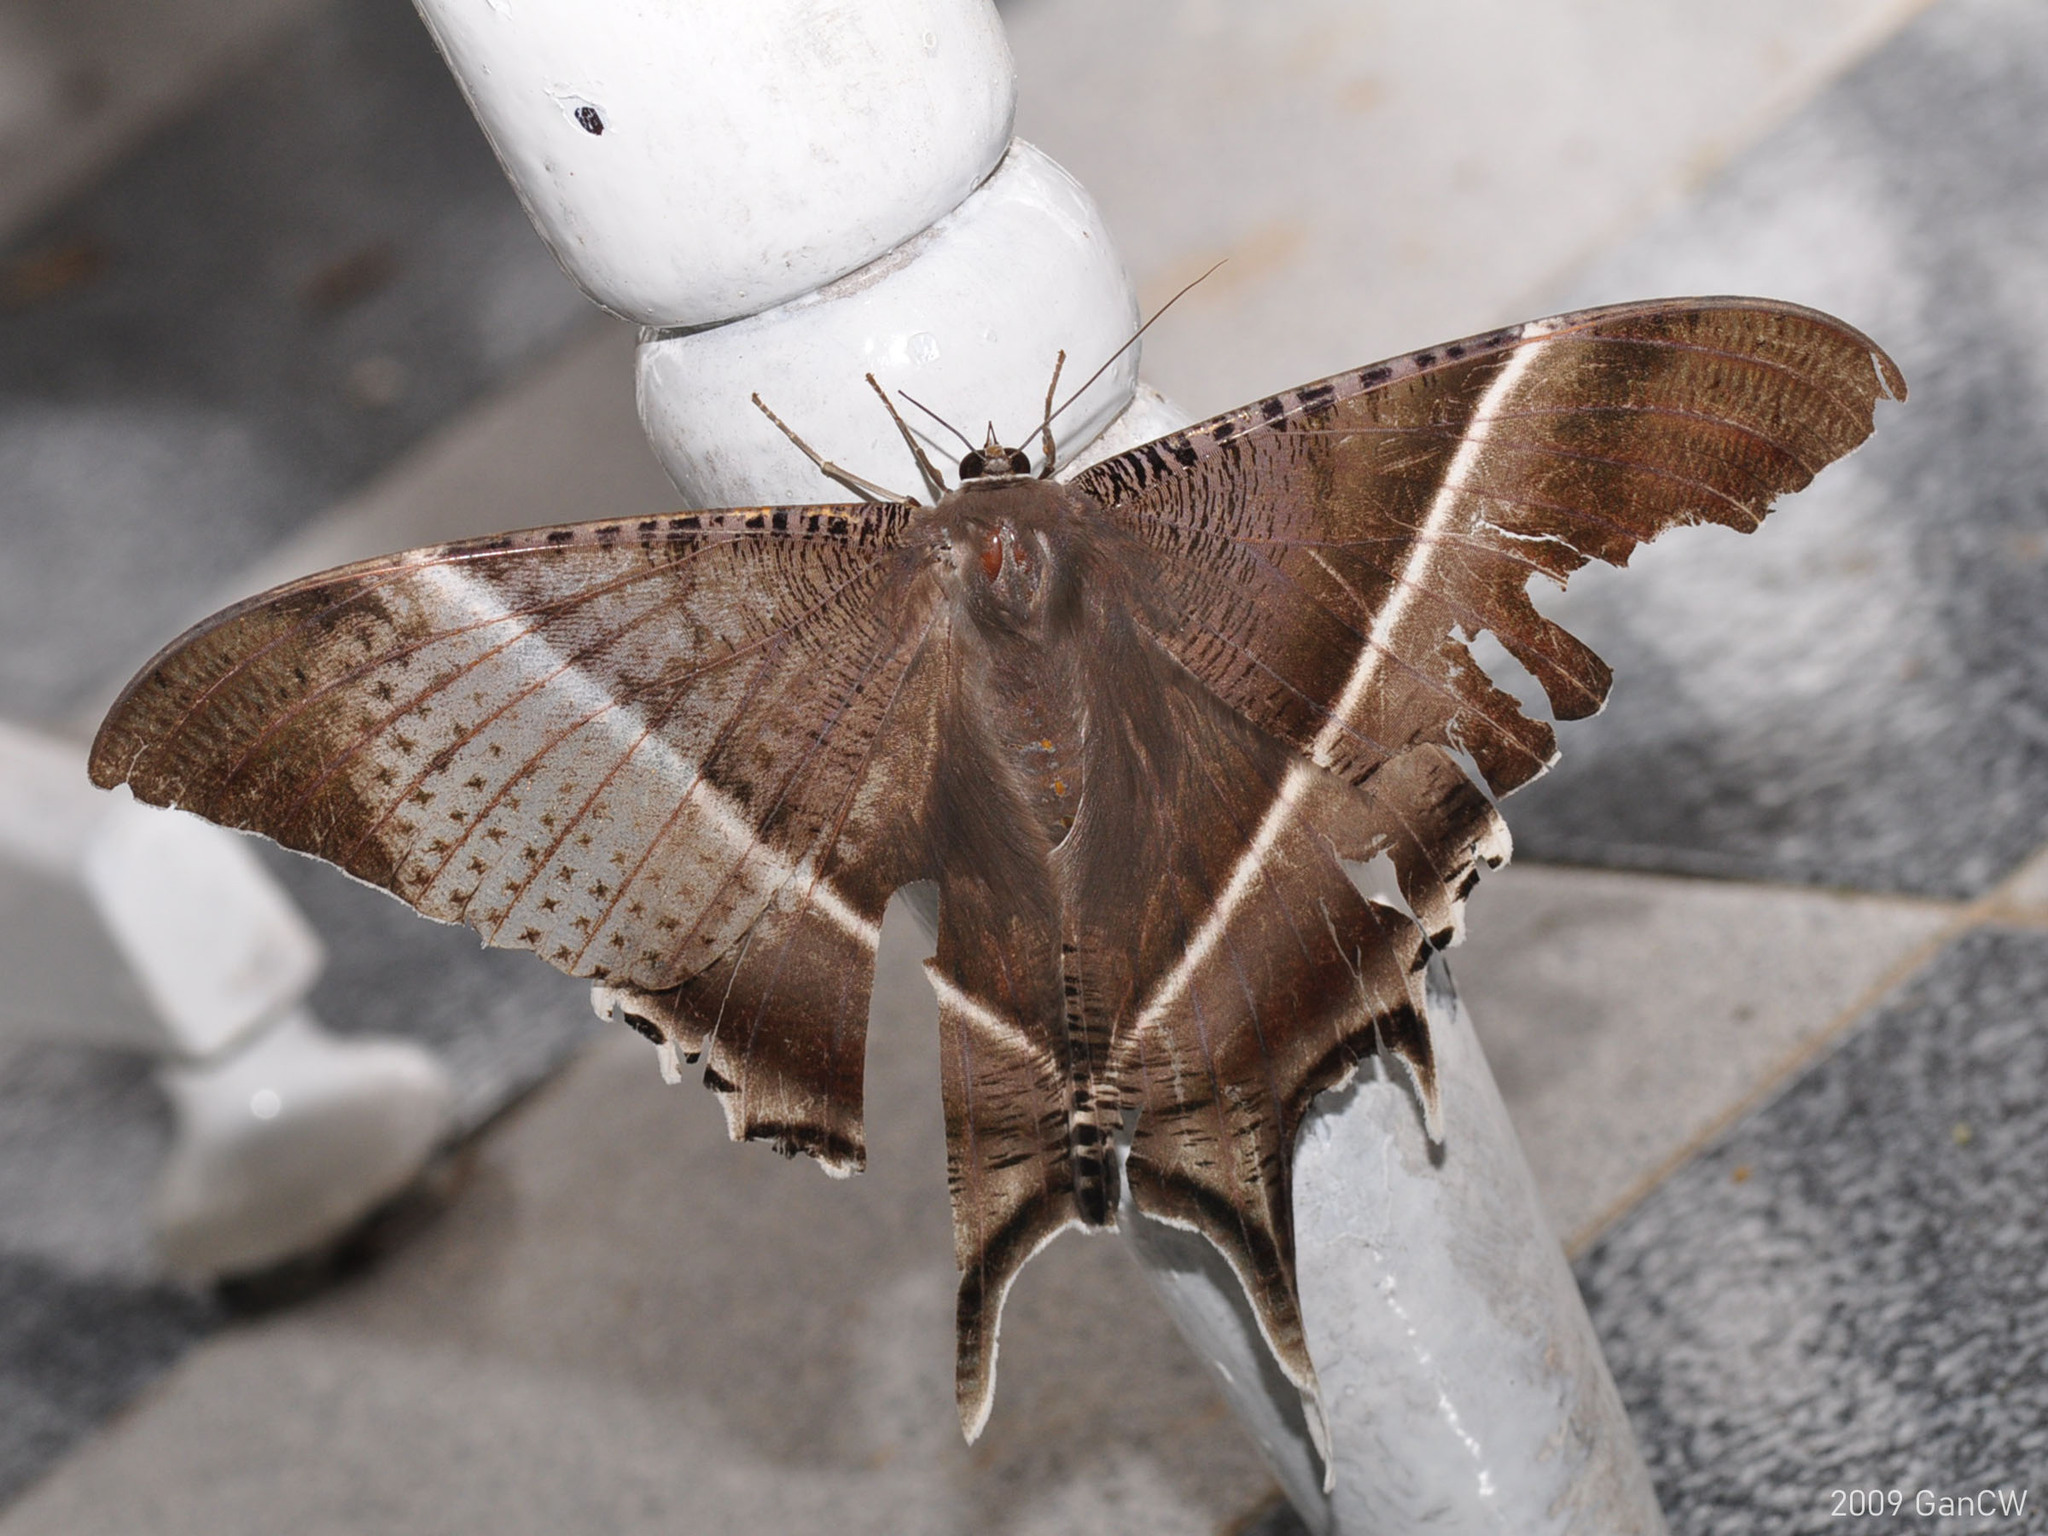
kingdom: Animalia
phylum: Arthropoda
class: Insecta
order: Lepidoptera
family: Uraniidae
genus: Lyssa
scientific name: Lyssa zampa
